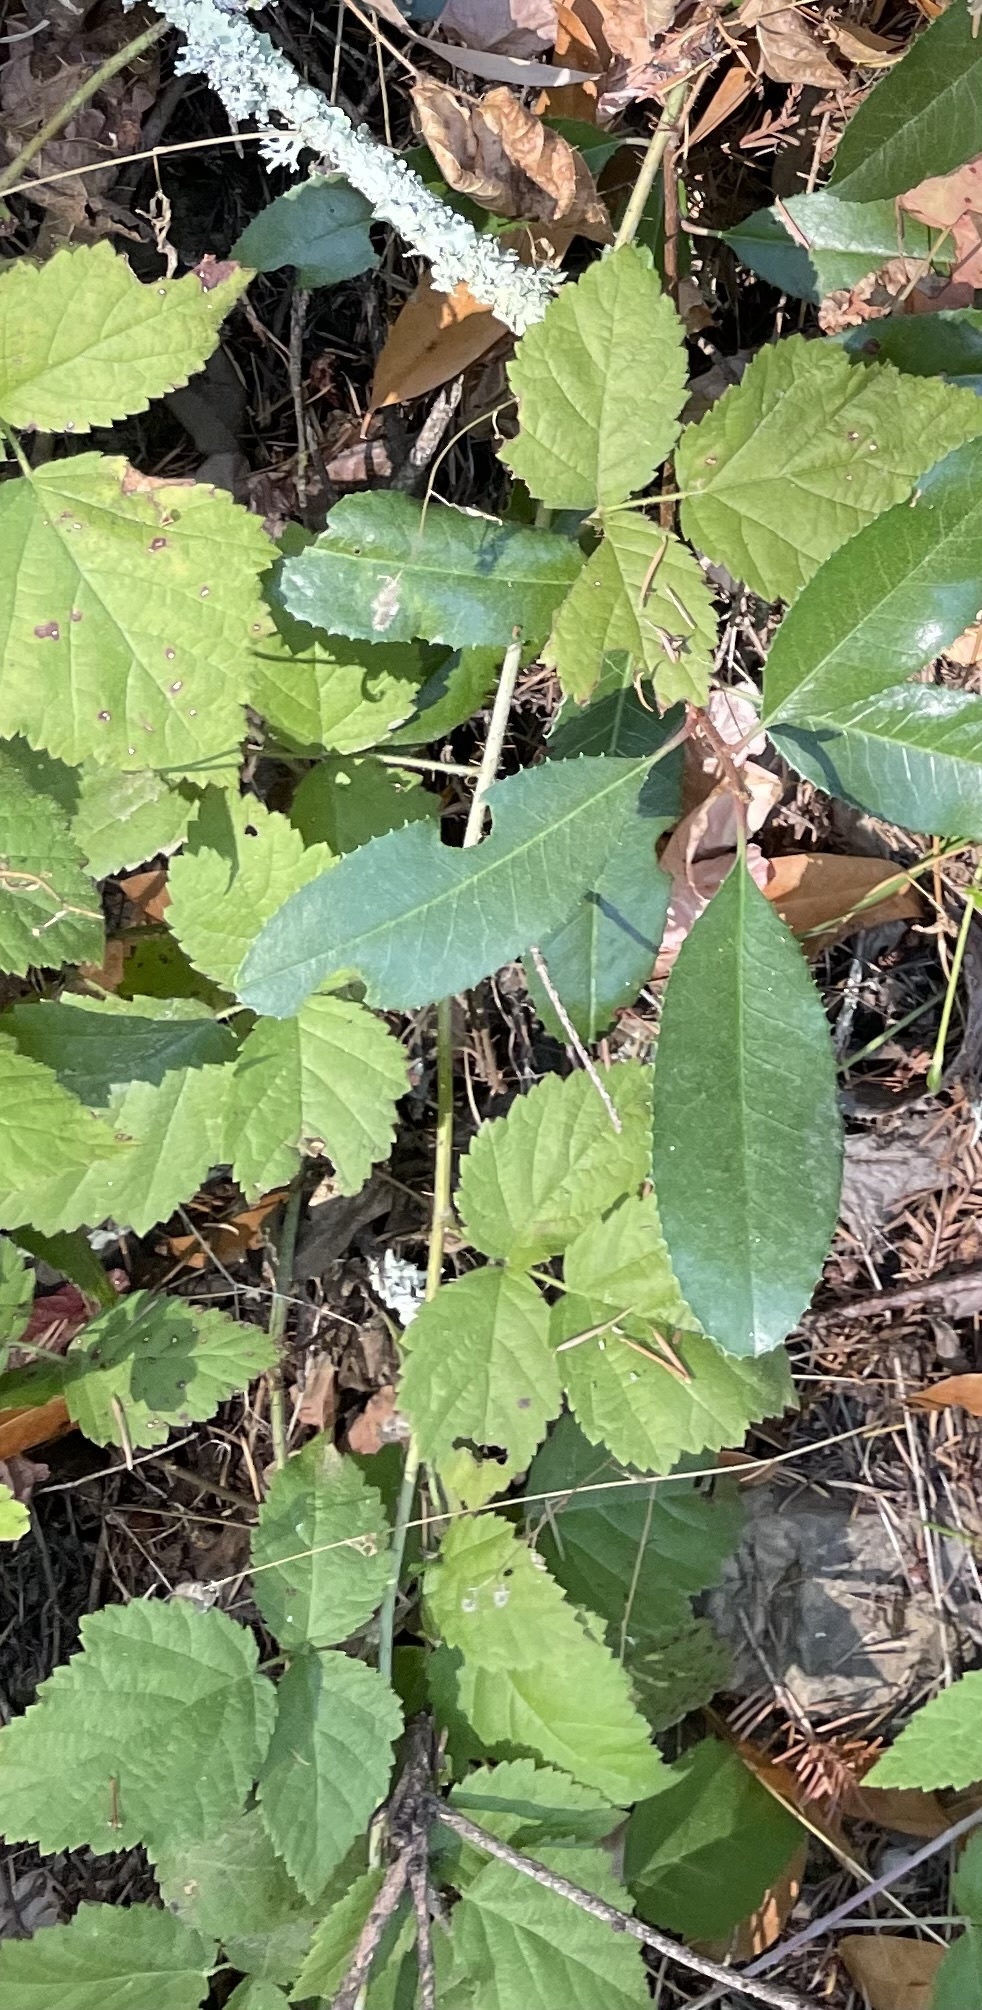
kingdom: Plantae
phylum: Tracheophyta
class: Magnoliopsida
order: Rosales
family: Rosaceae
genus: Rubus
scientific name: Rubus ursinus
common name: Pacific blackberry
